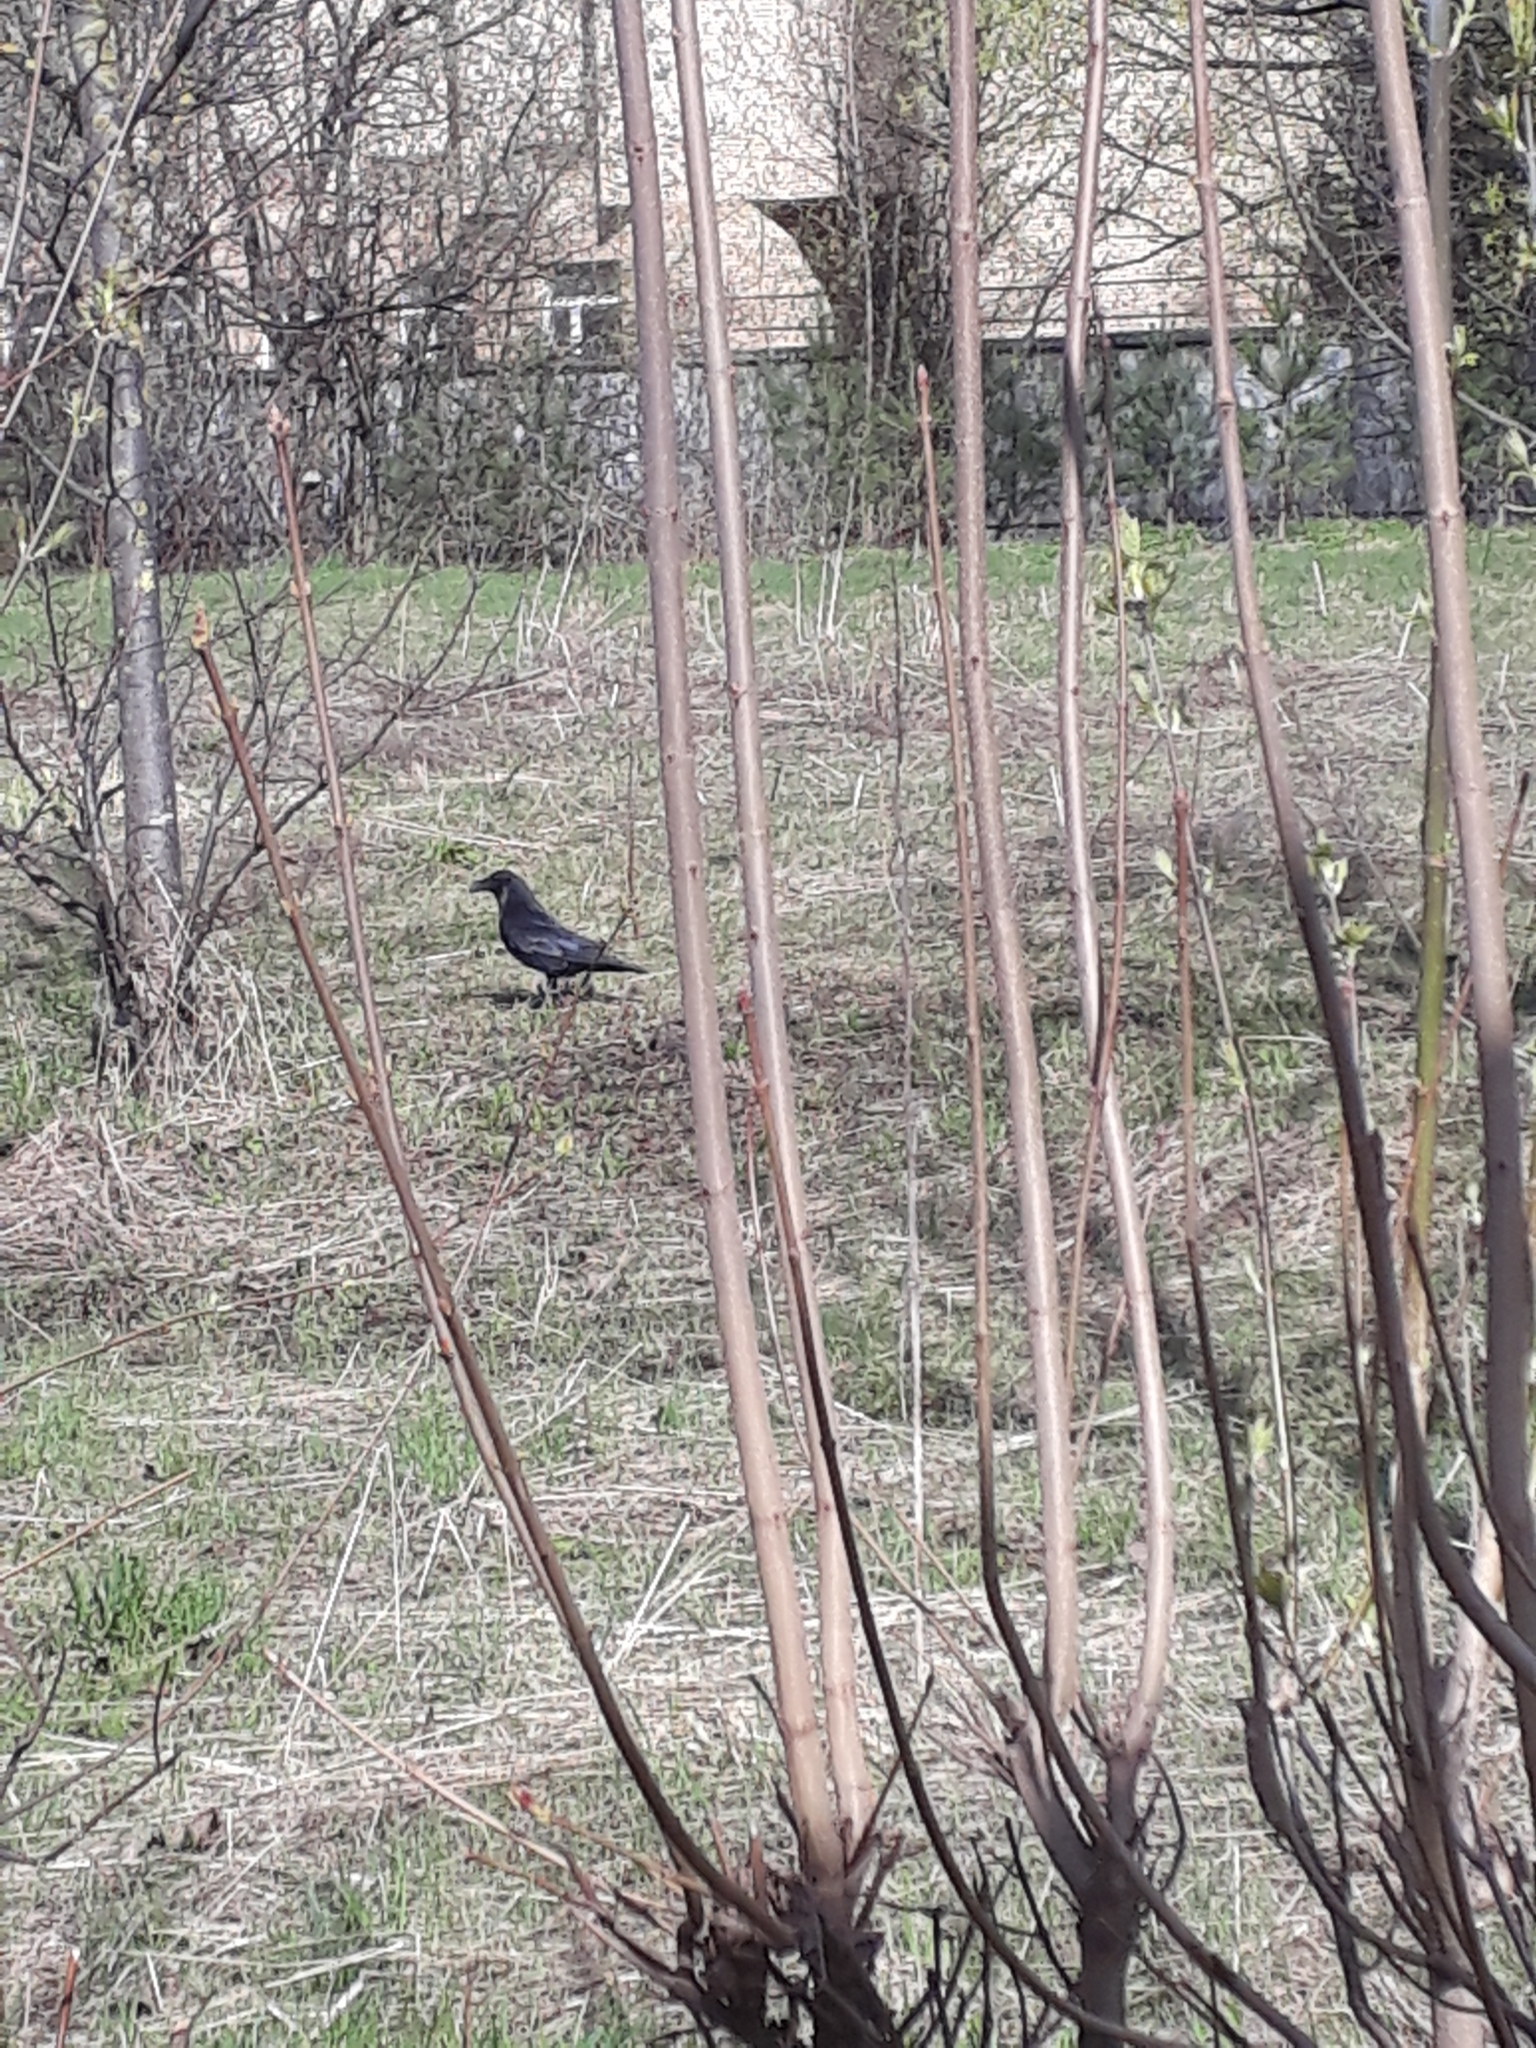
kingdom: Animalia
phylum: Chordata
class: Aves
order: Passeriformes
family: Corvidae
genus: Corvus
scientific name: Corvus corax
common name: Common raven
